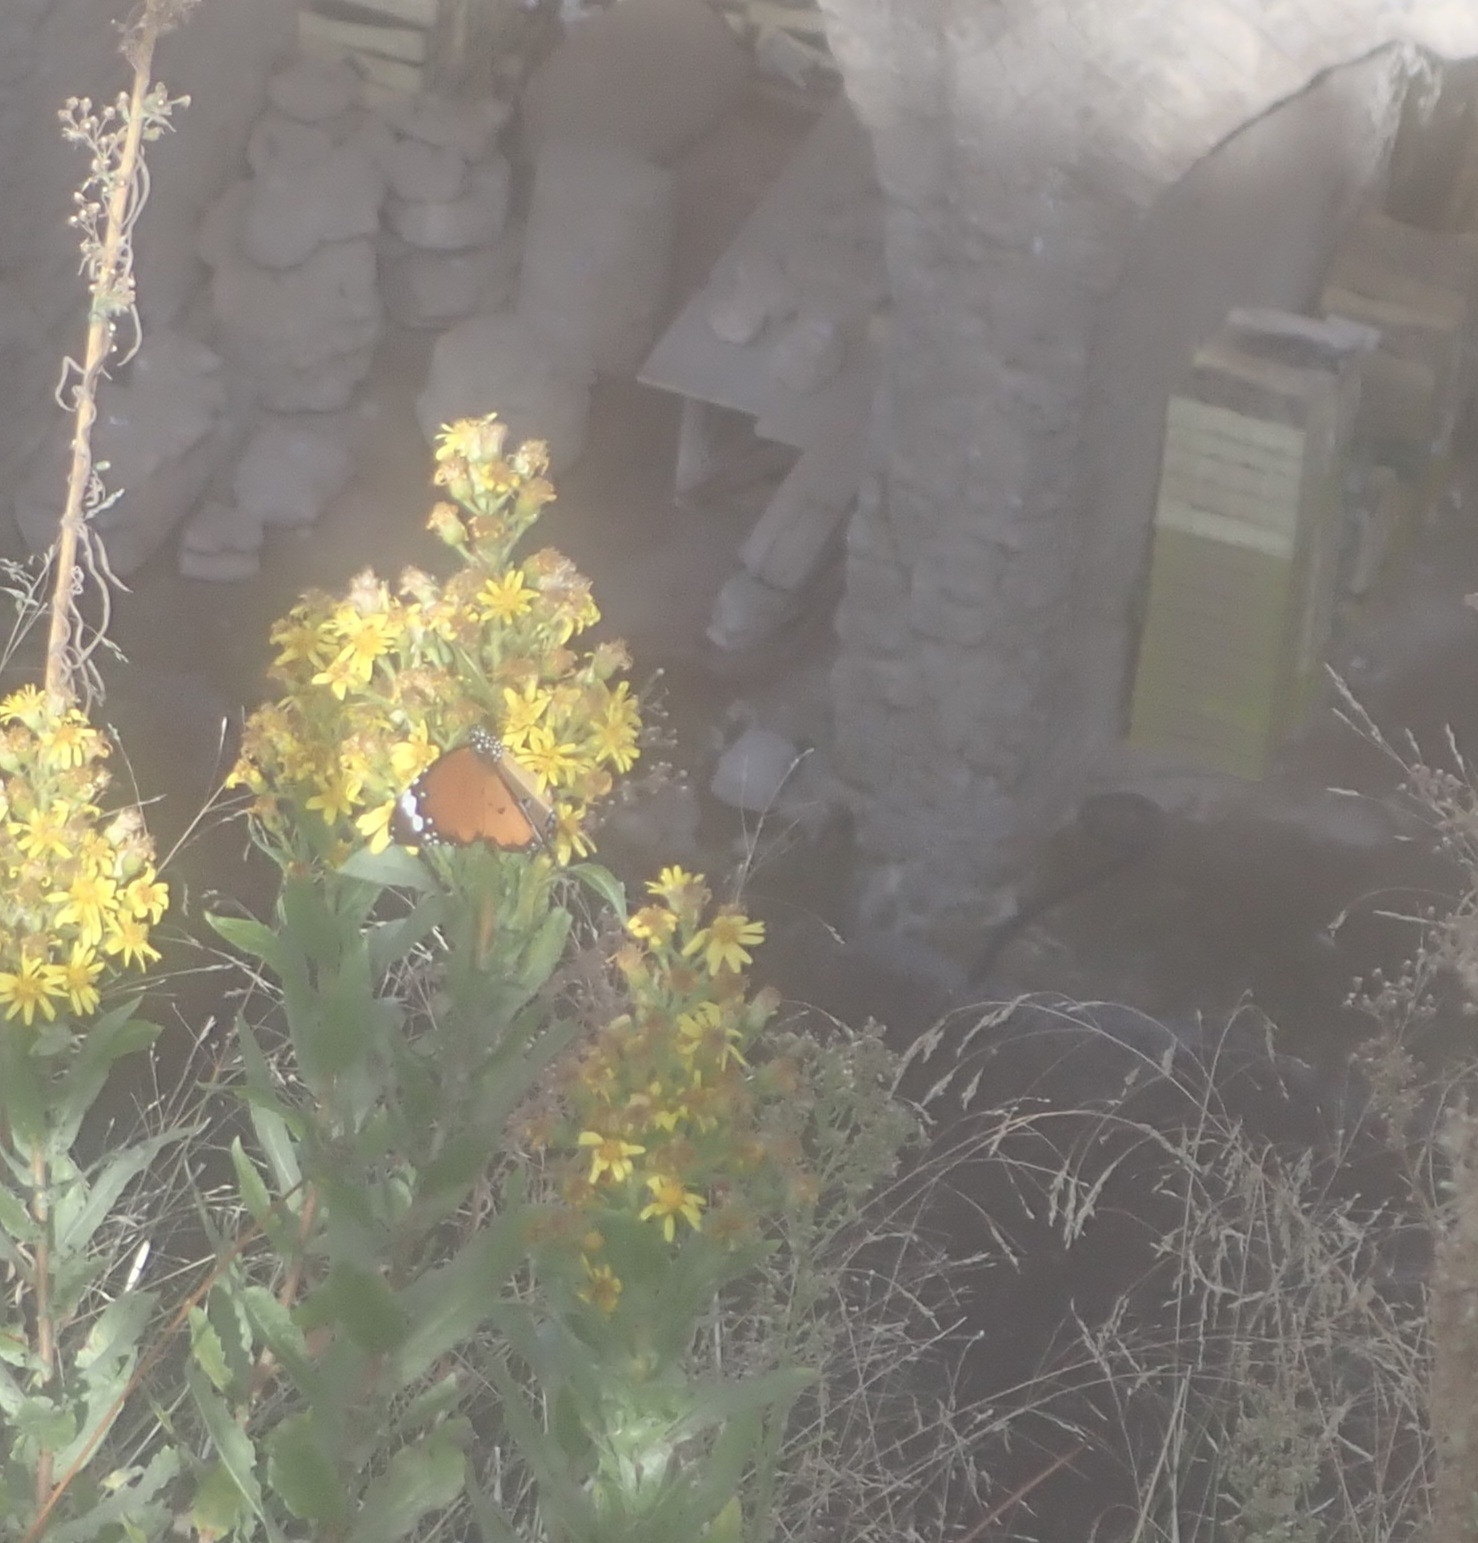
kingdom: Animalia
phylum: Arthropoda
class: Insecta
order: Lepidoptera
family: Nymphalidae
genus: Danaus
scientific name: Danaus chrysippus
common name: Plain tiger
